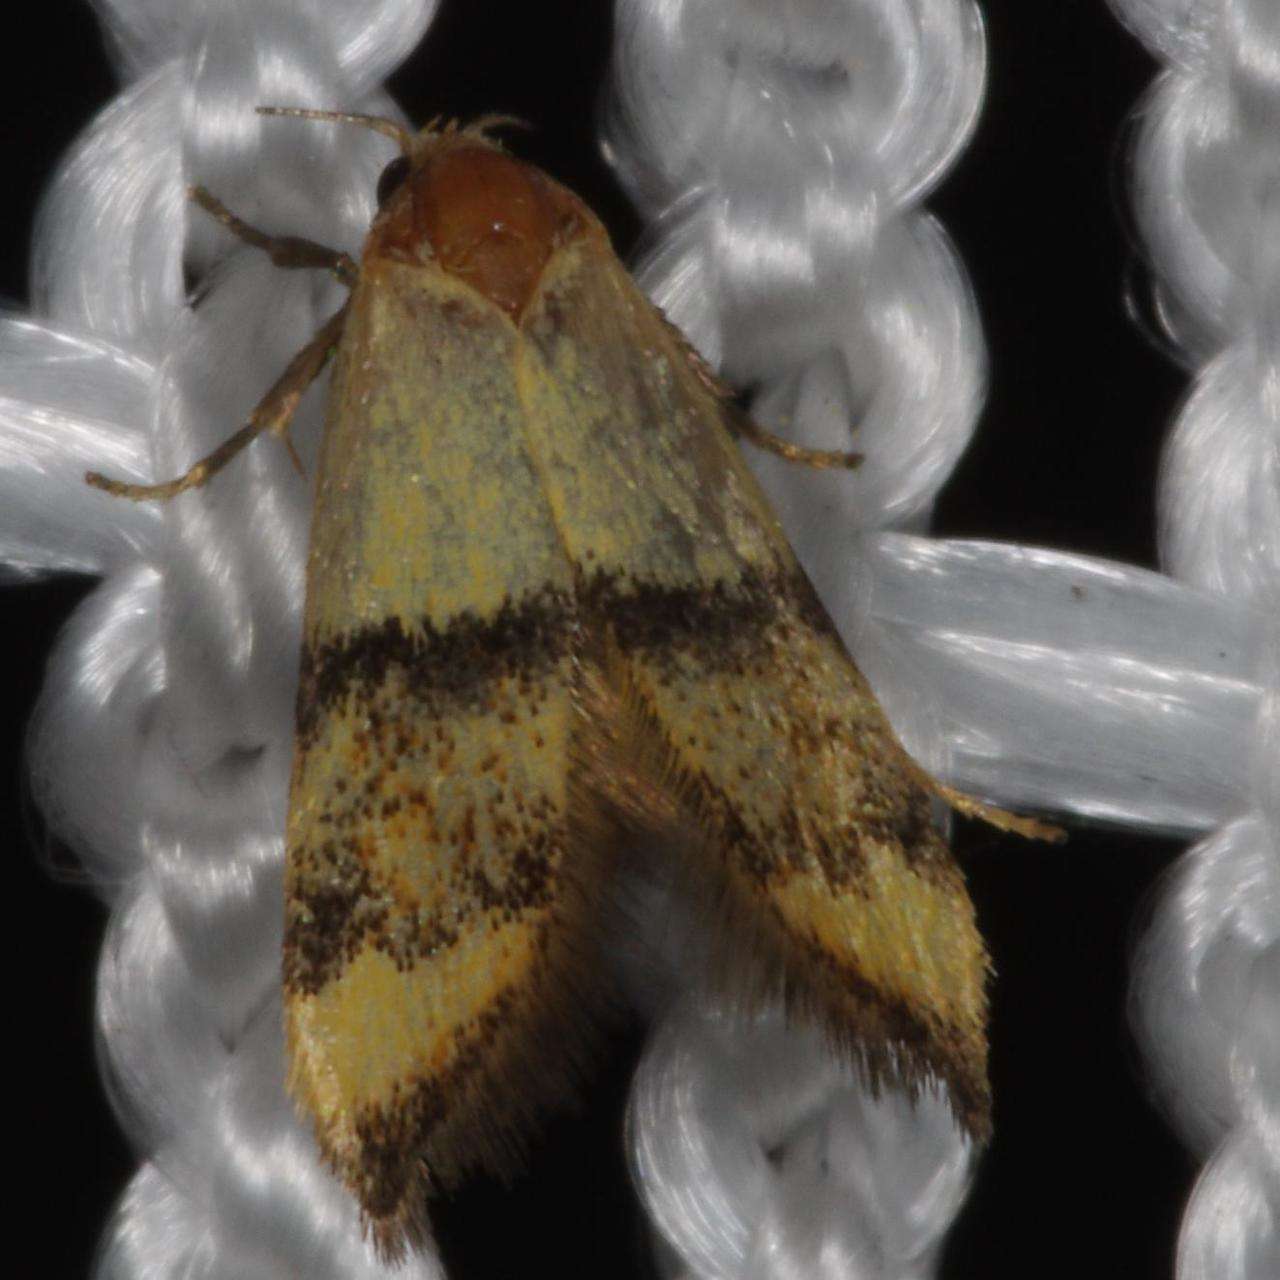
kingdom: Animalia
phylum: Arthropoda
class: Insecta
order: Lepidoptera
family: Oecophoridae
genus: Temnogyropa
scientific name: Temnogyropa stenomorpha
